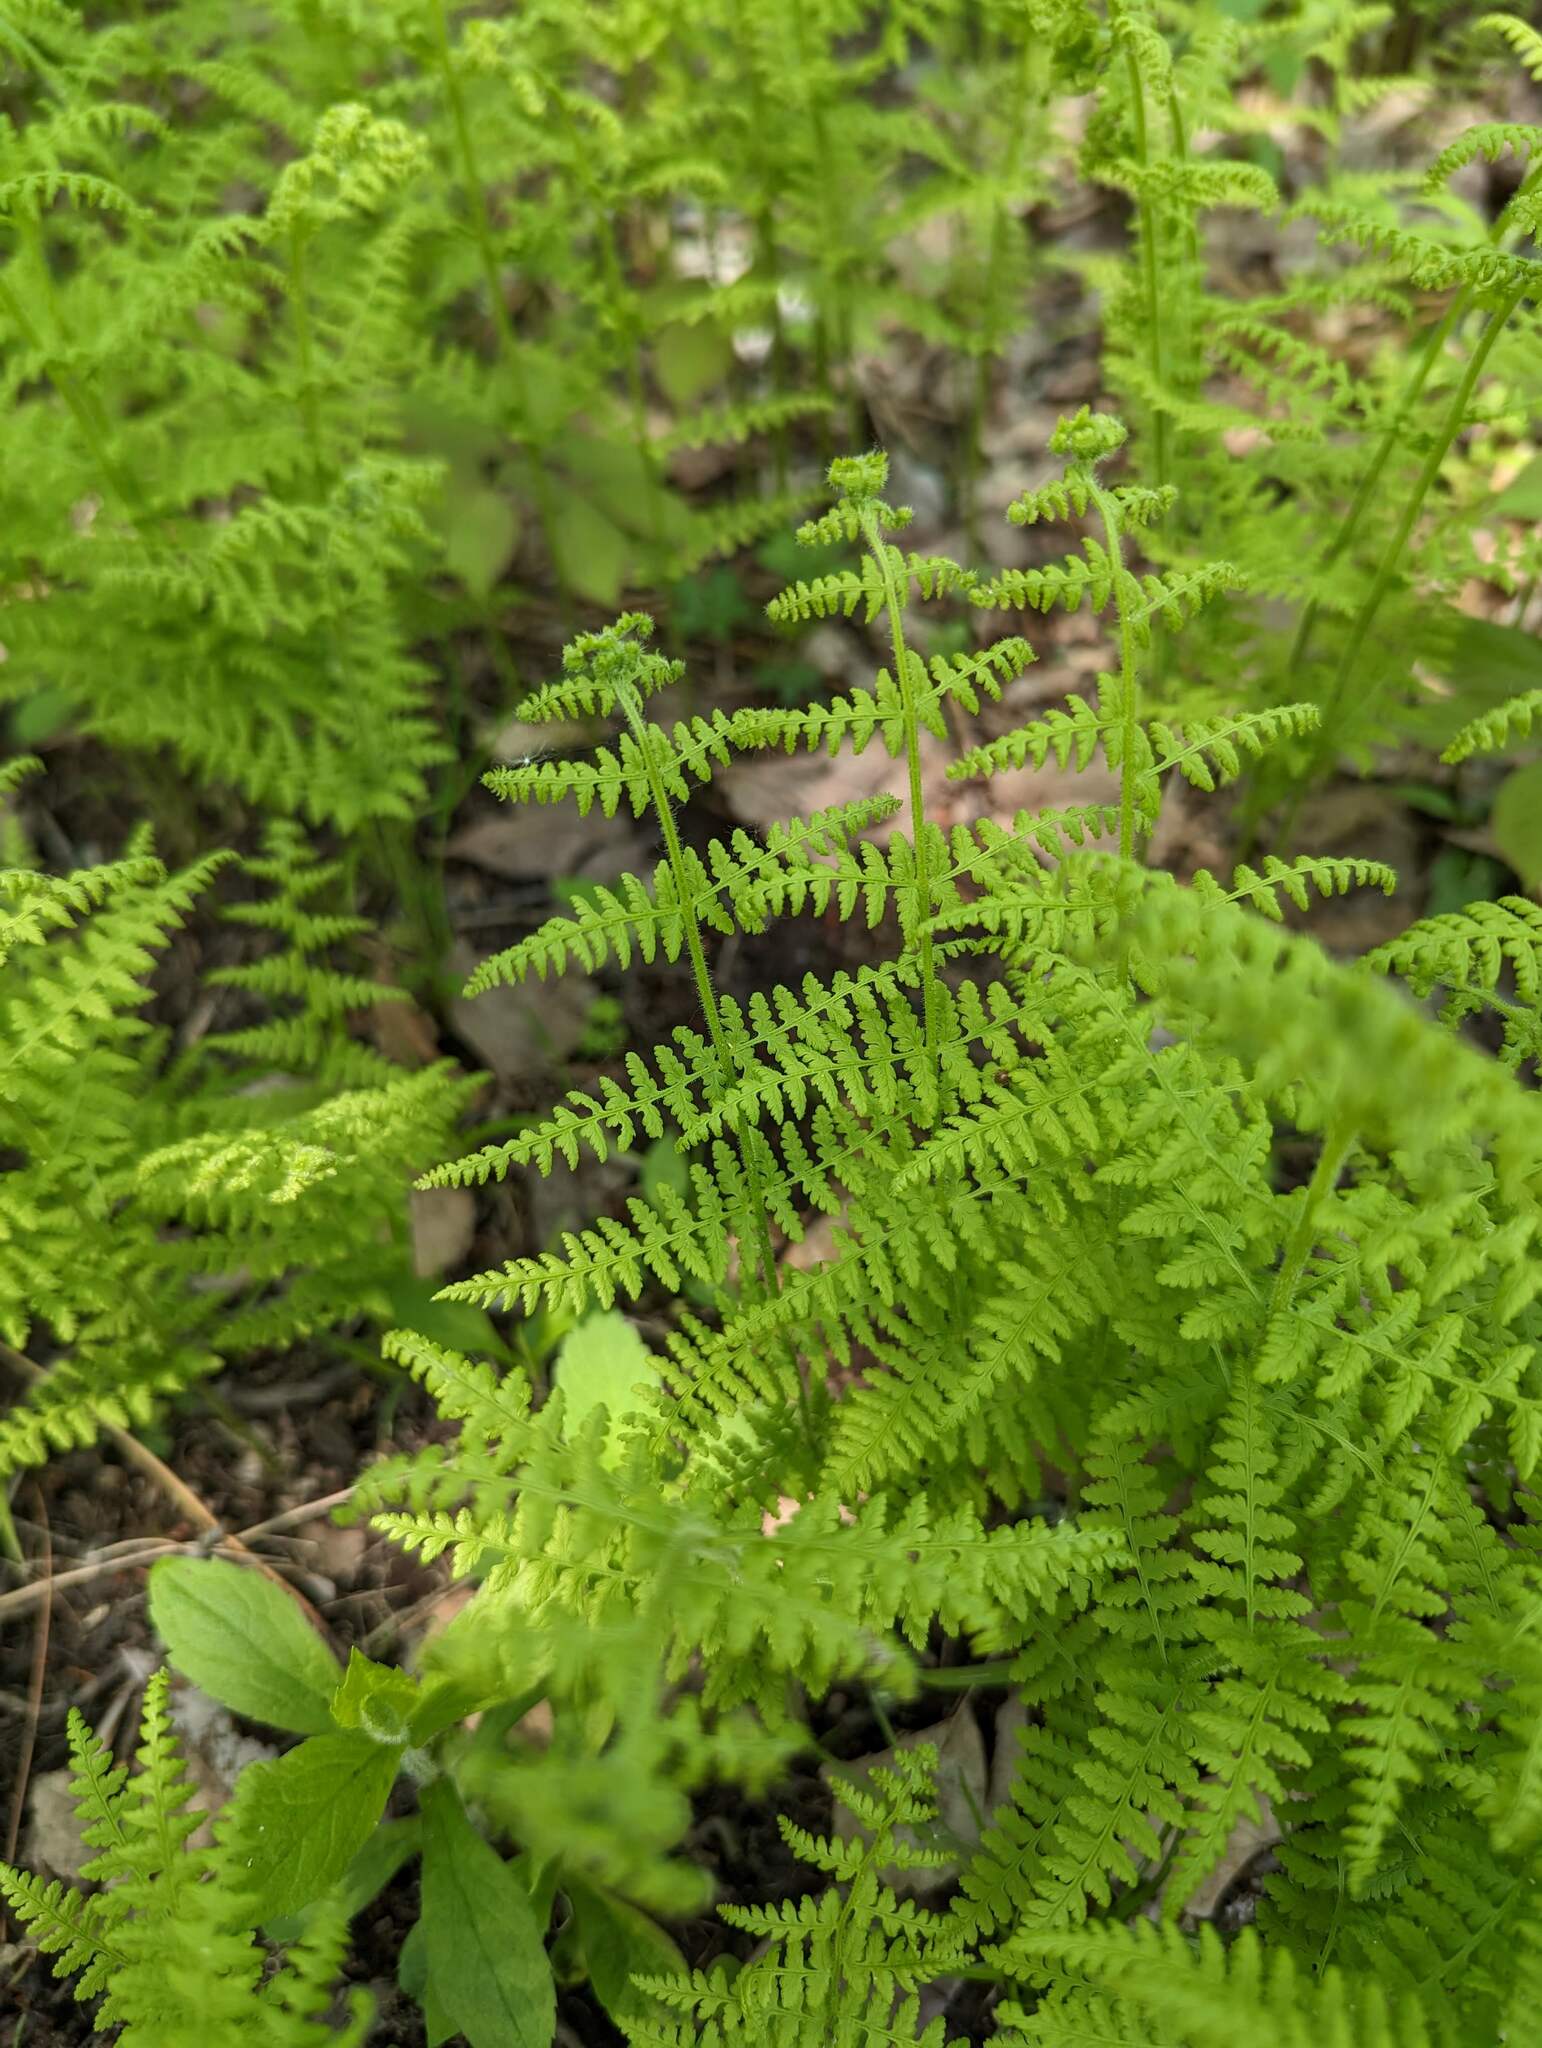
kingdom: Plantae
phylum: Tracheophyta
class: Polypodiopsida
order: Polypodiales
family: Dennstaedtiaceae
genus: Sitobolium
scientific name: Sitobolium punctilobum
